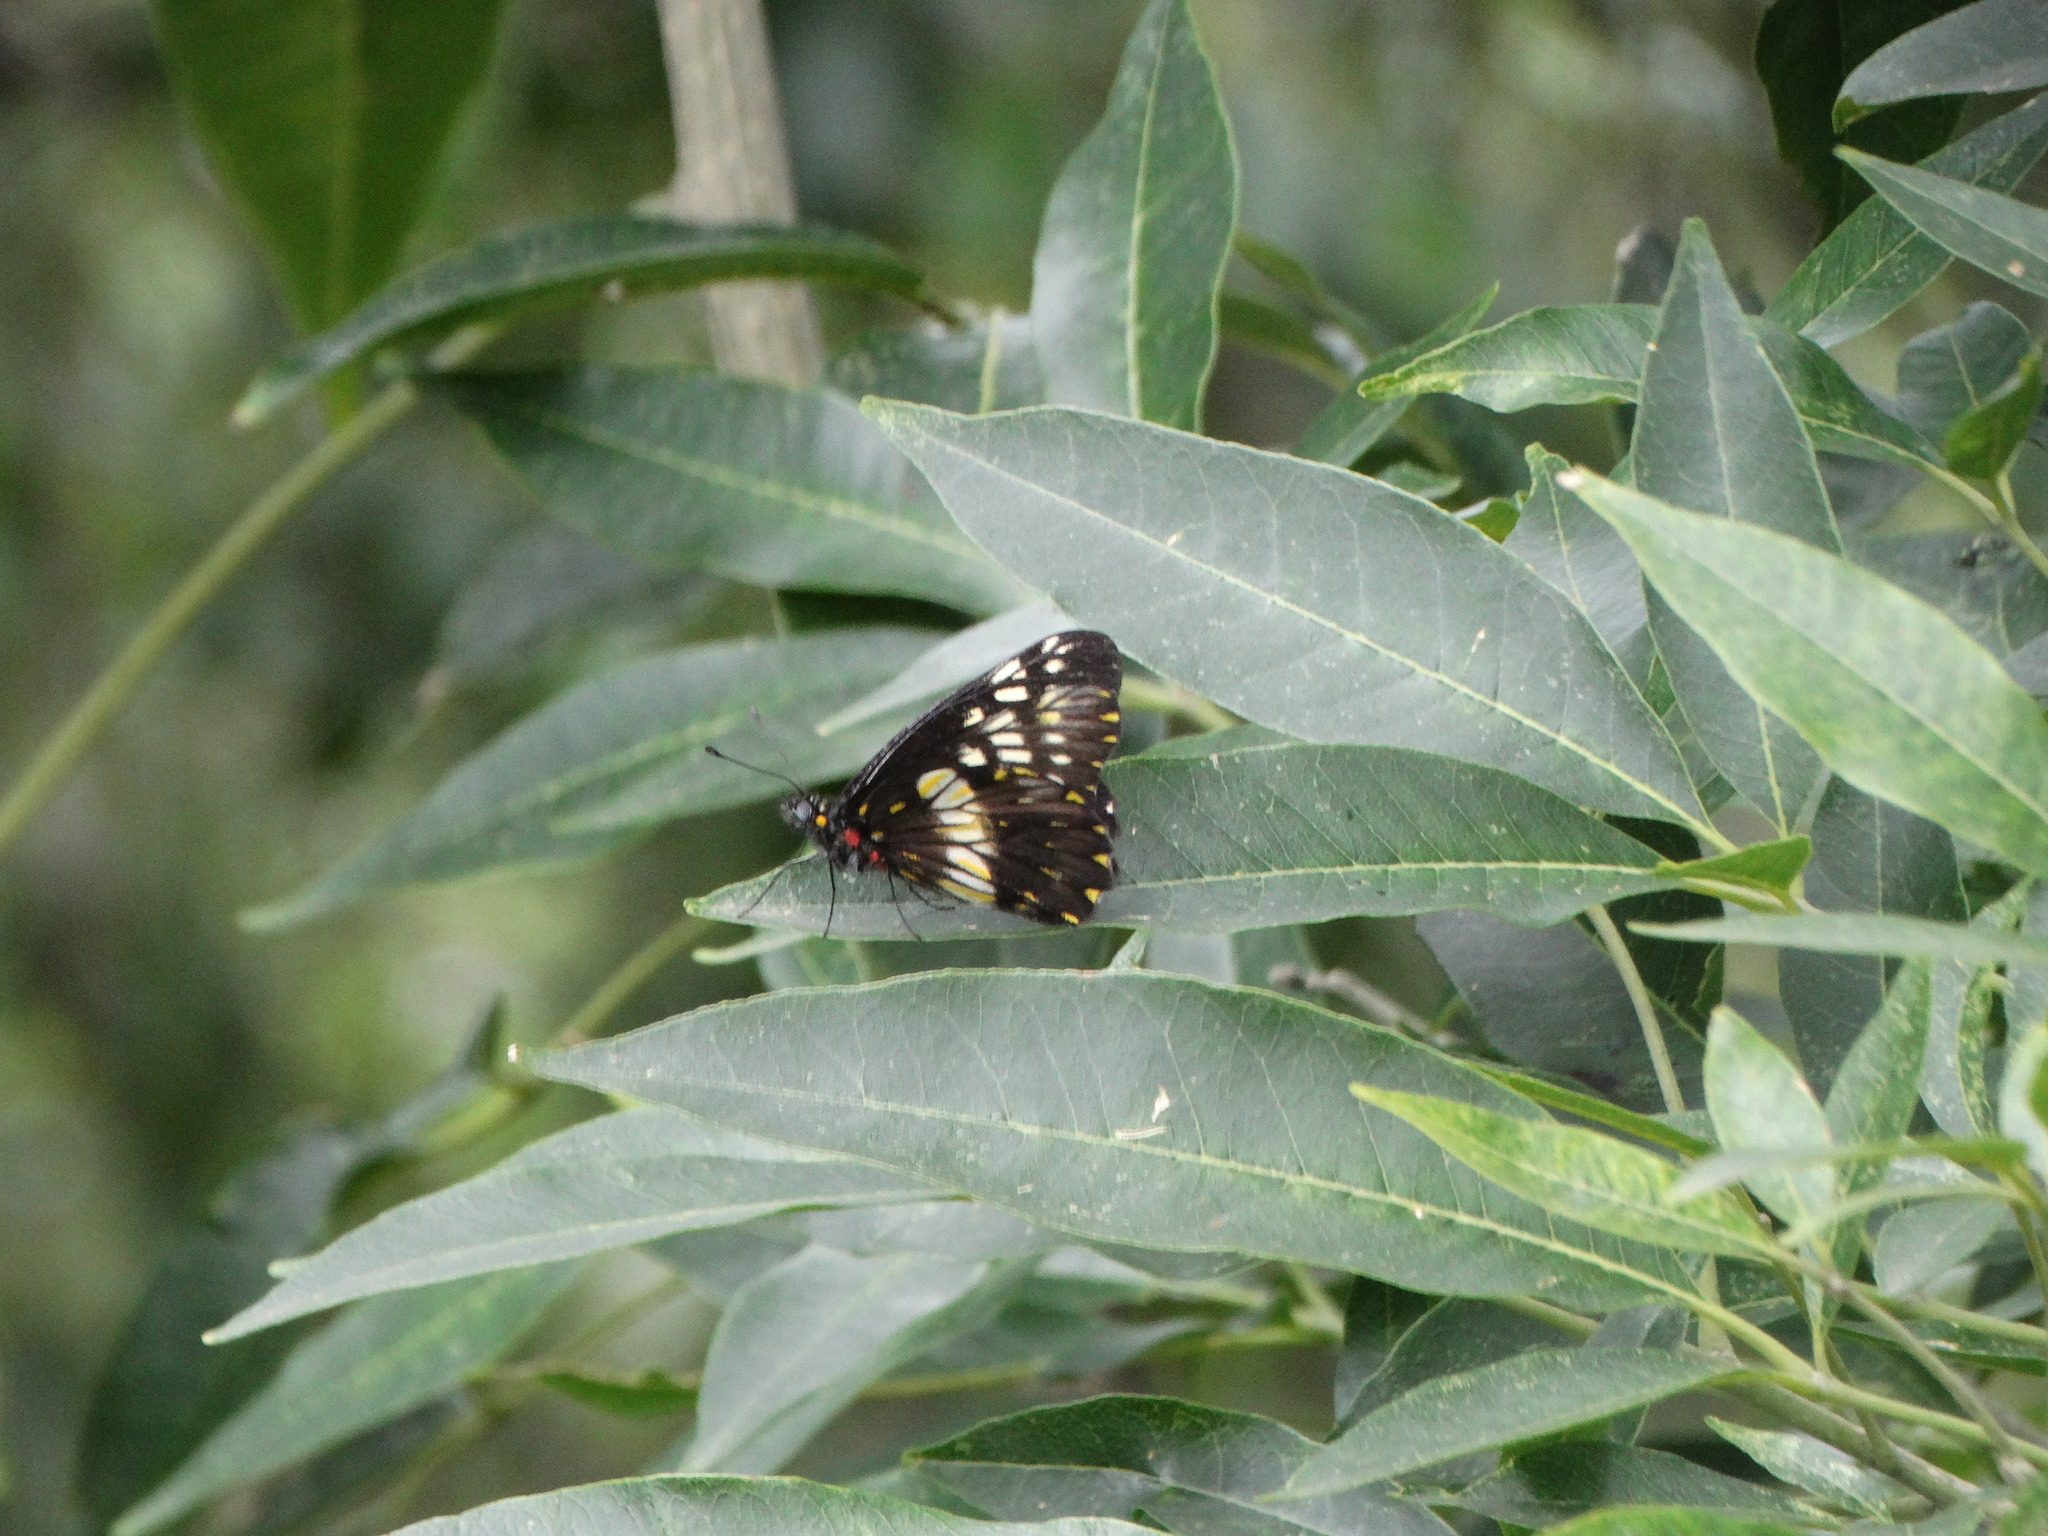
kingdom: Animalia
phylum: Arthropoda
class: Insecta
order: Lepidoptera
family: Pieridae
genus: Archonias
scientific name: Archonias nimbice
